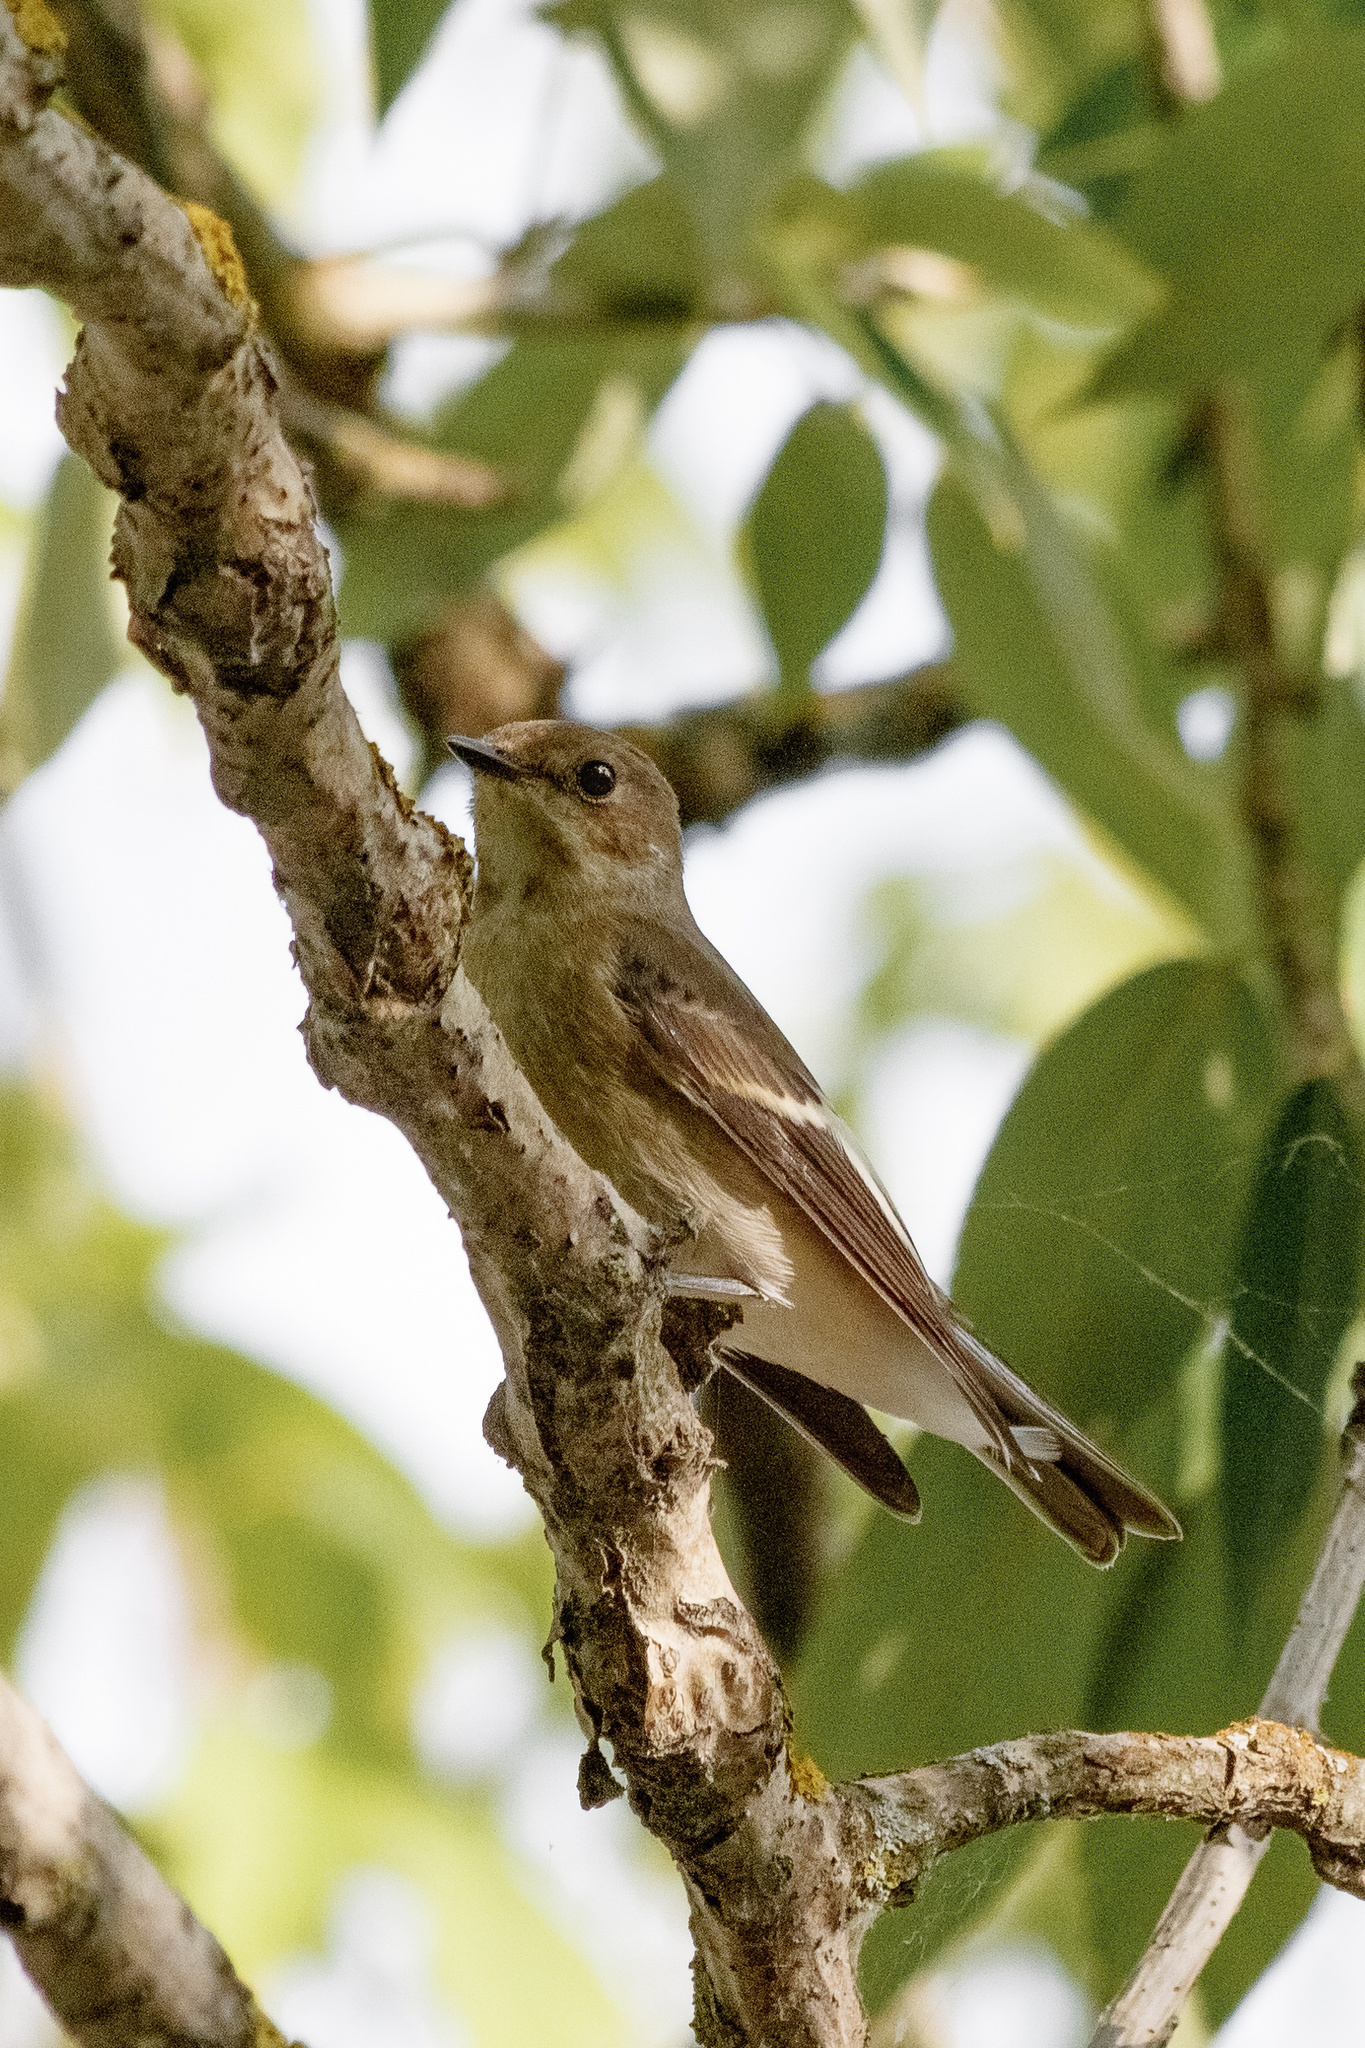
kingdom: Animalia
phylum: Chordata
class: Aves
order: Passeriformes
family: Muscicapidae
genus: Ficedula
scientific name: Ficedula hypoleuca
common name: European pied flycatcher
